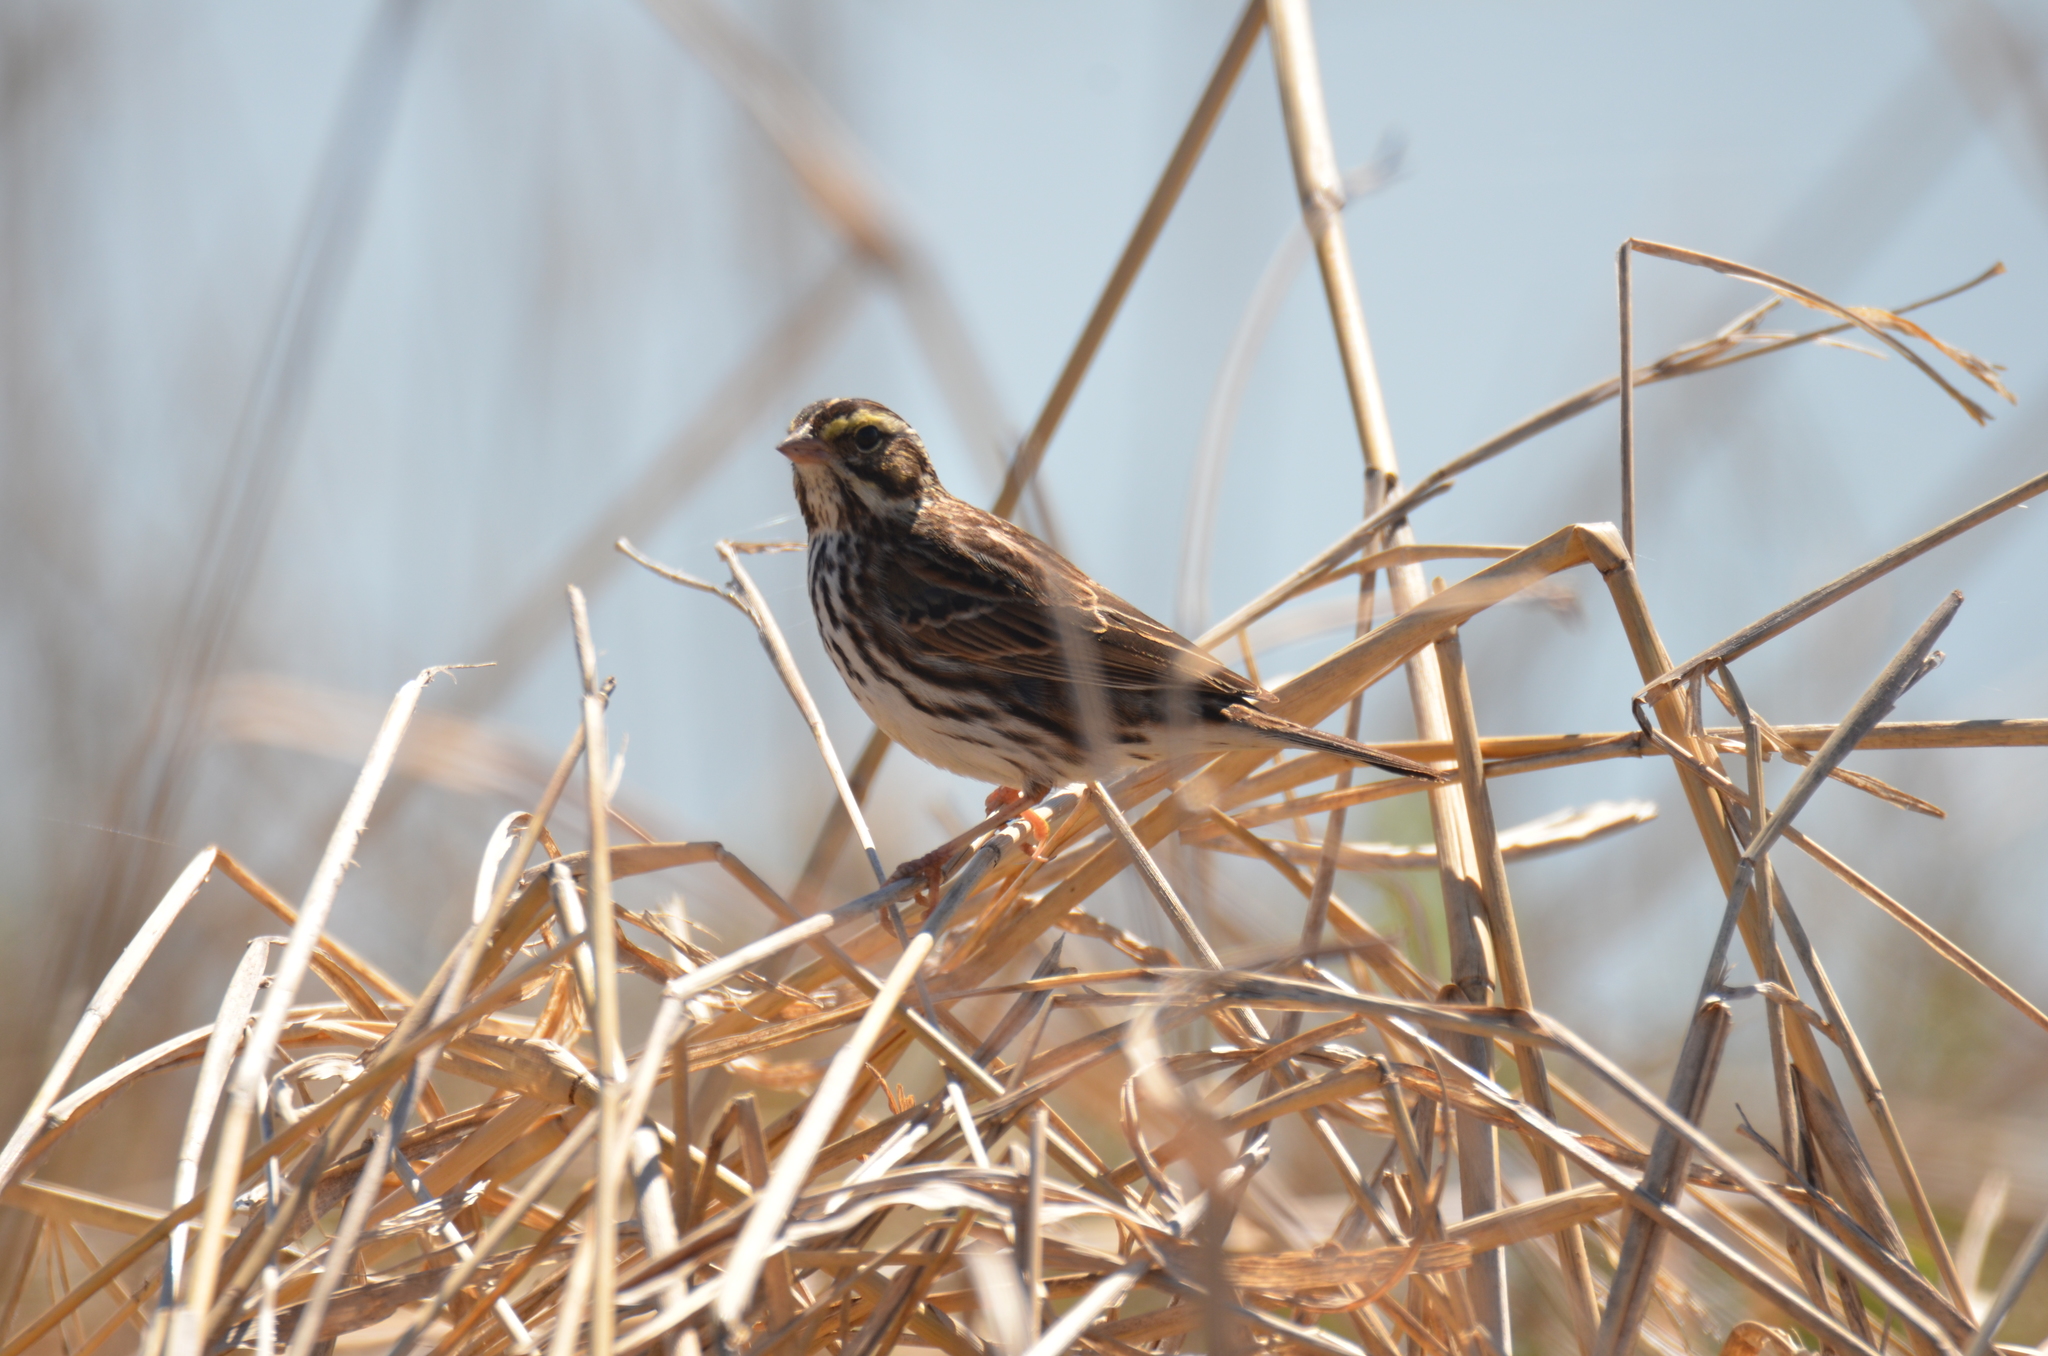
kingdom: Animalia
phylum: Chordata
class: Aves
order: Passeriformes
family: Passerellidae
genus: Passerculus
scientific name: Passerculus sandwichensis
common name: Savannah sparrow
